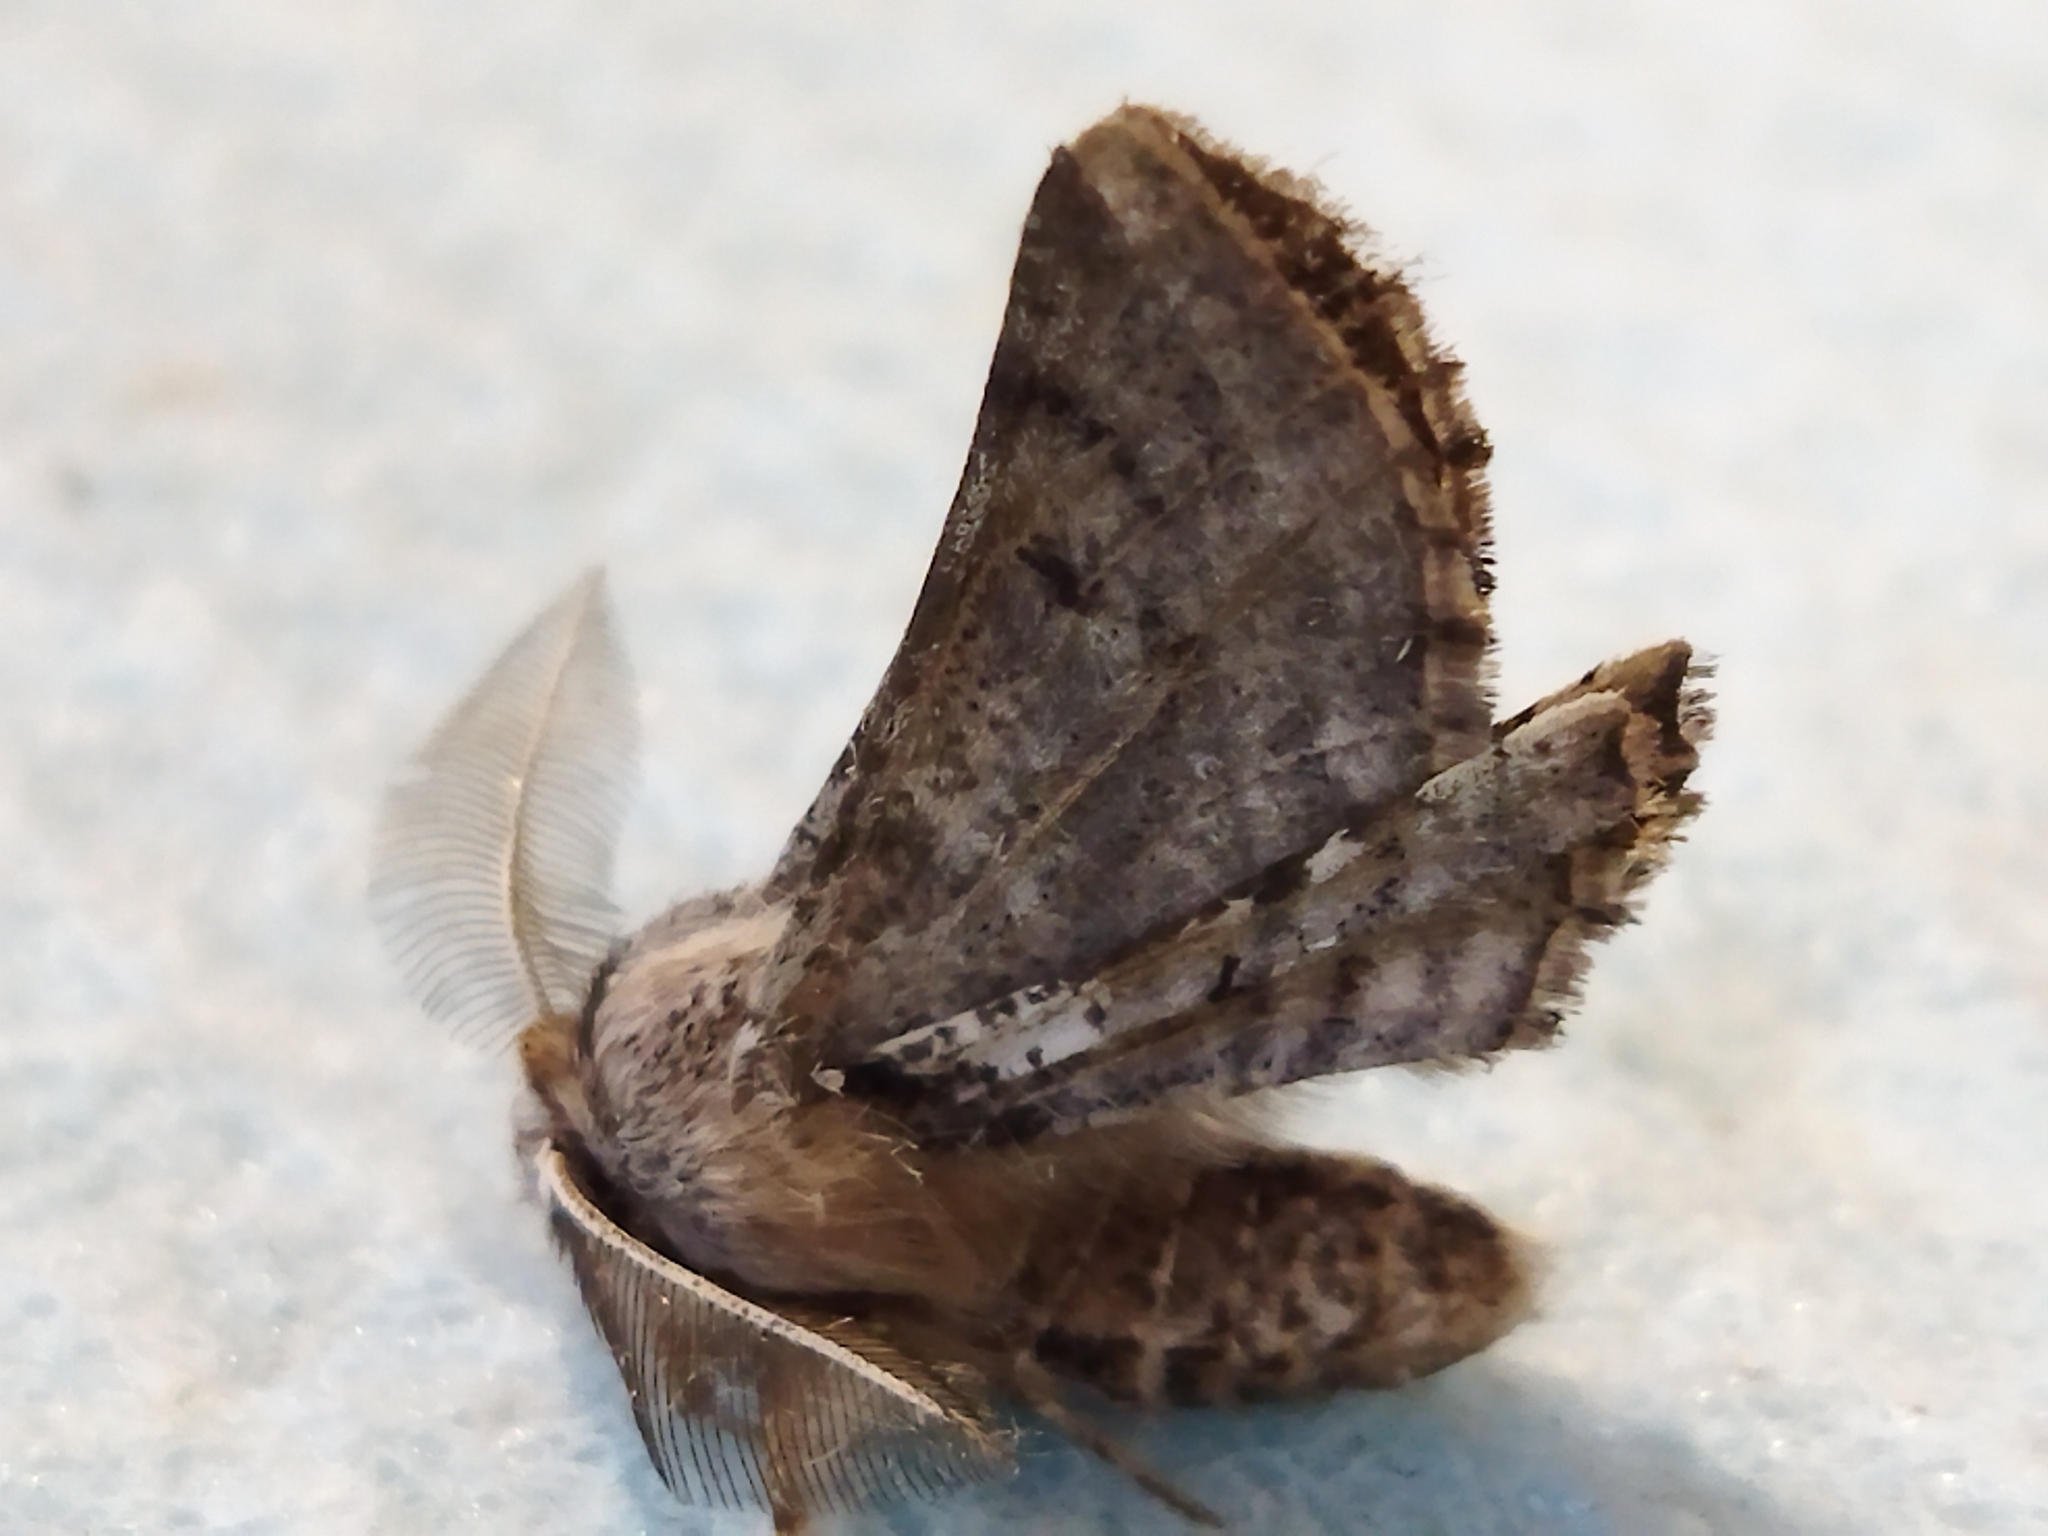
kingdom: Animalia
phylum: Arthropoda
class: Insecta
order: Lepidoptera
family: Geometridae
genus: Apochima
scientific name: Apochima flabellaria
